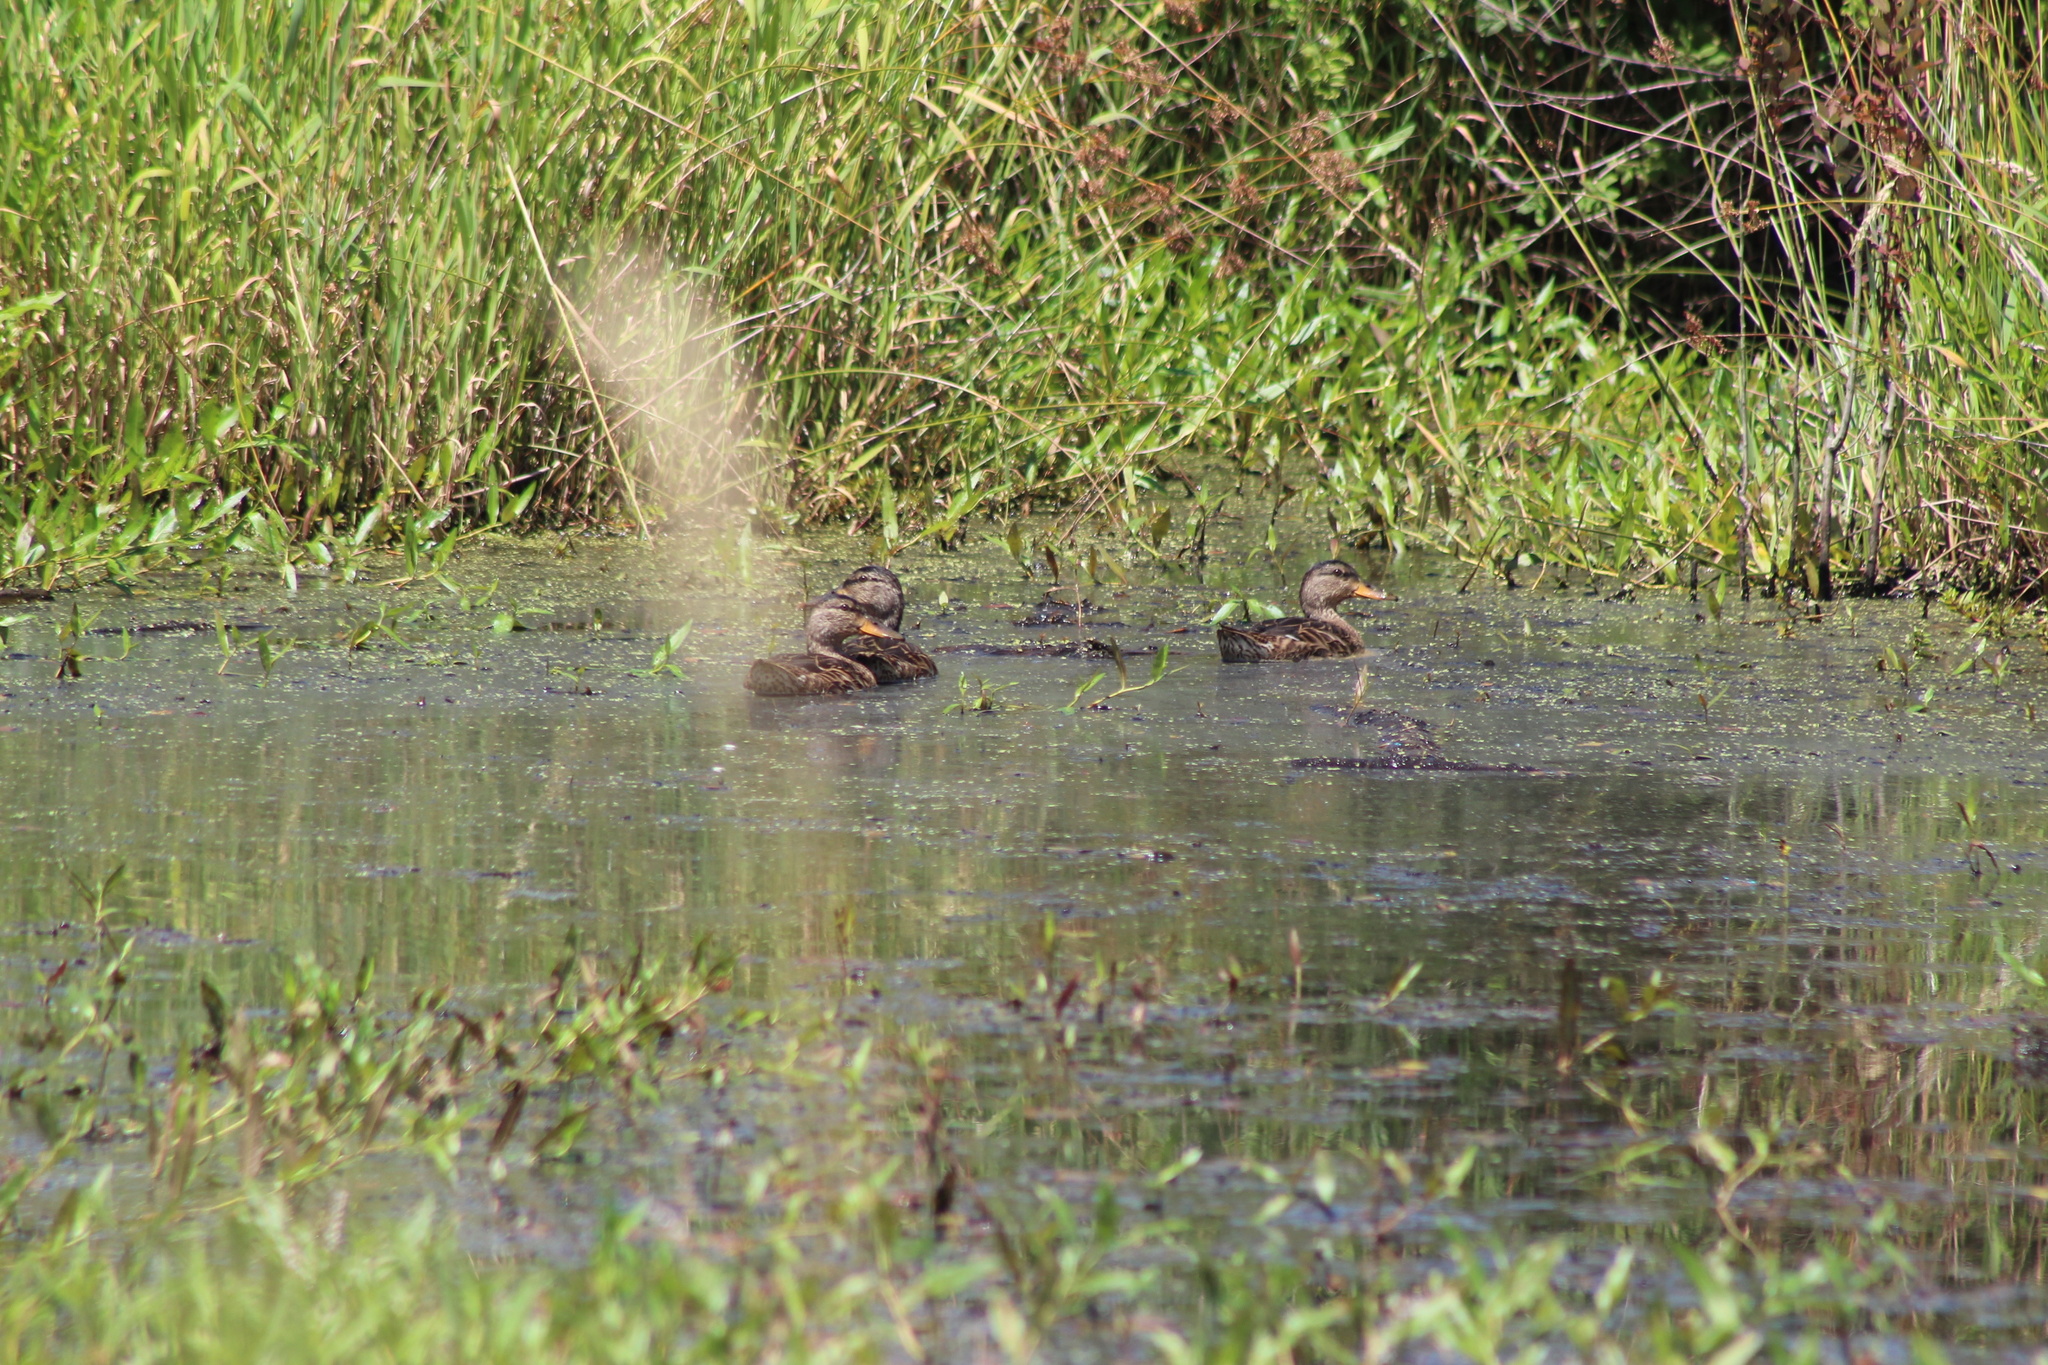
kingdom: Animalia
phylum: Chordata
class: Aves
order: Anseriformes
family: Anatidae
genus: Anas
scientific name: Anas platyrhynchos
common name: Mallard
